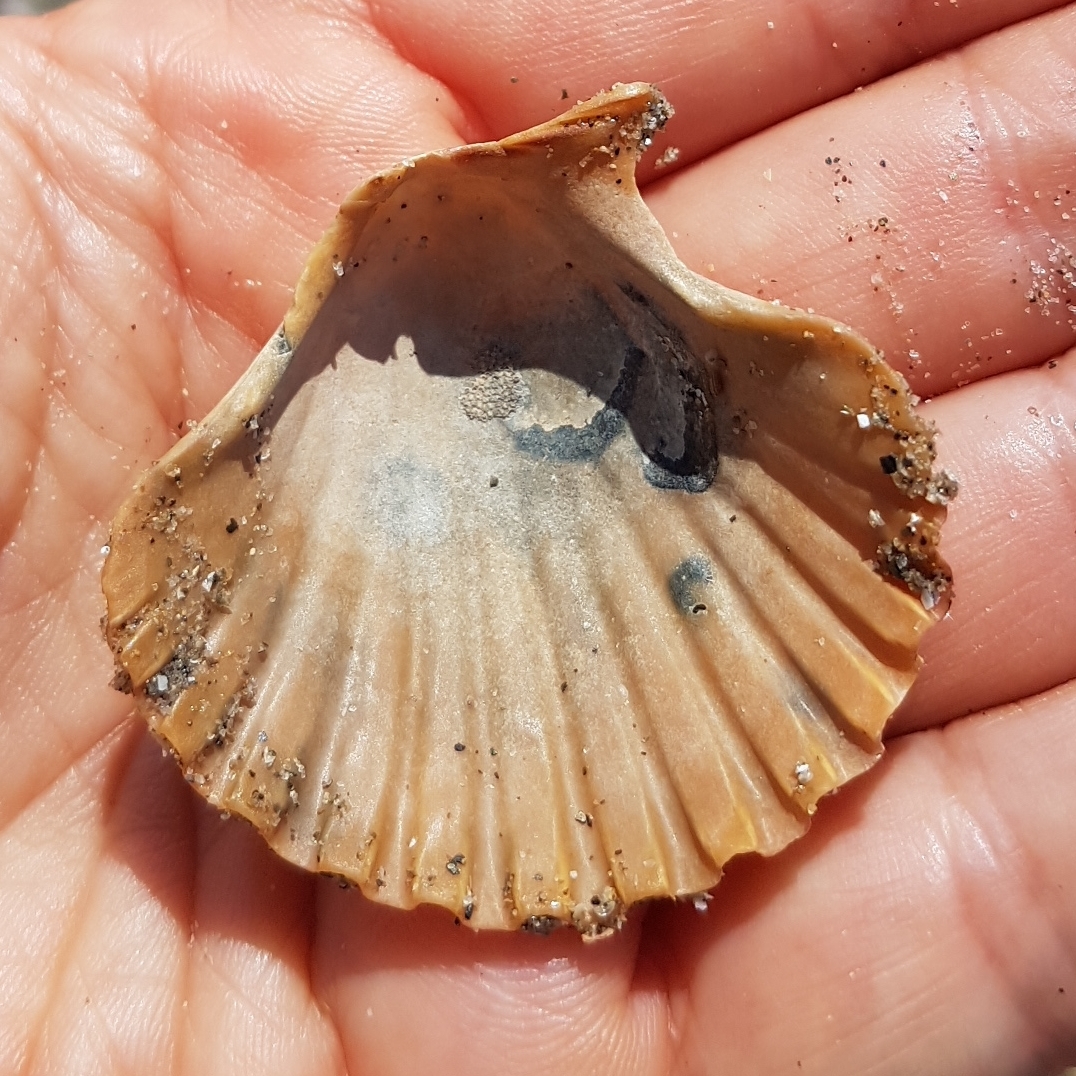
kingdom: Animalia
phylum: Mollusca
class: Bivalvia
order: Pectinida
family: Pectinidae
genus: Pecten
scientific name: Pecten jacobaeus
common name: St.james's scallop
